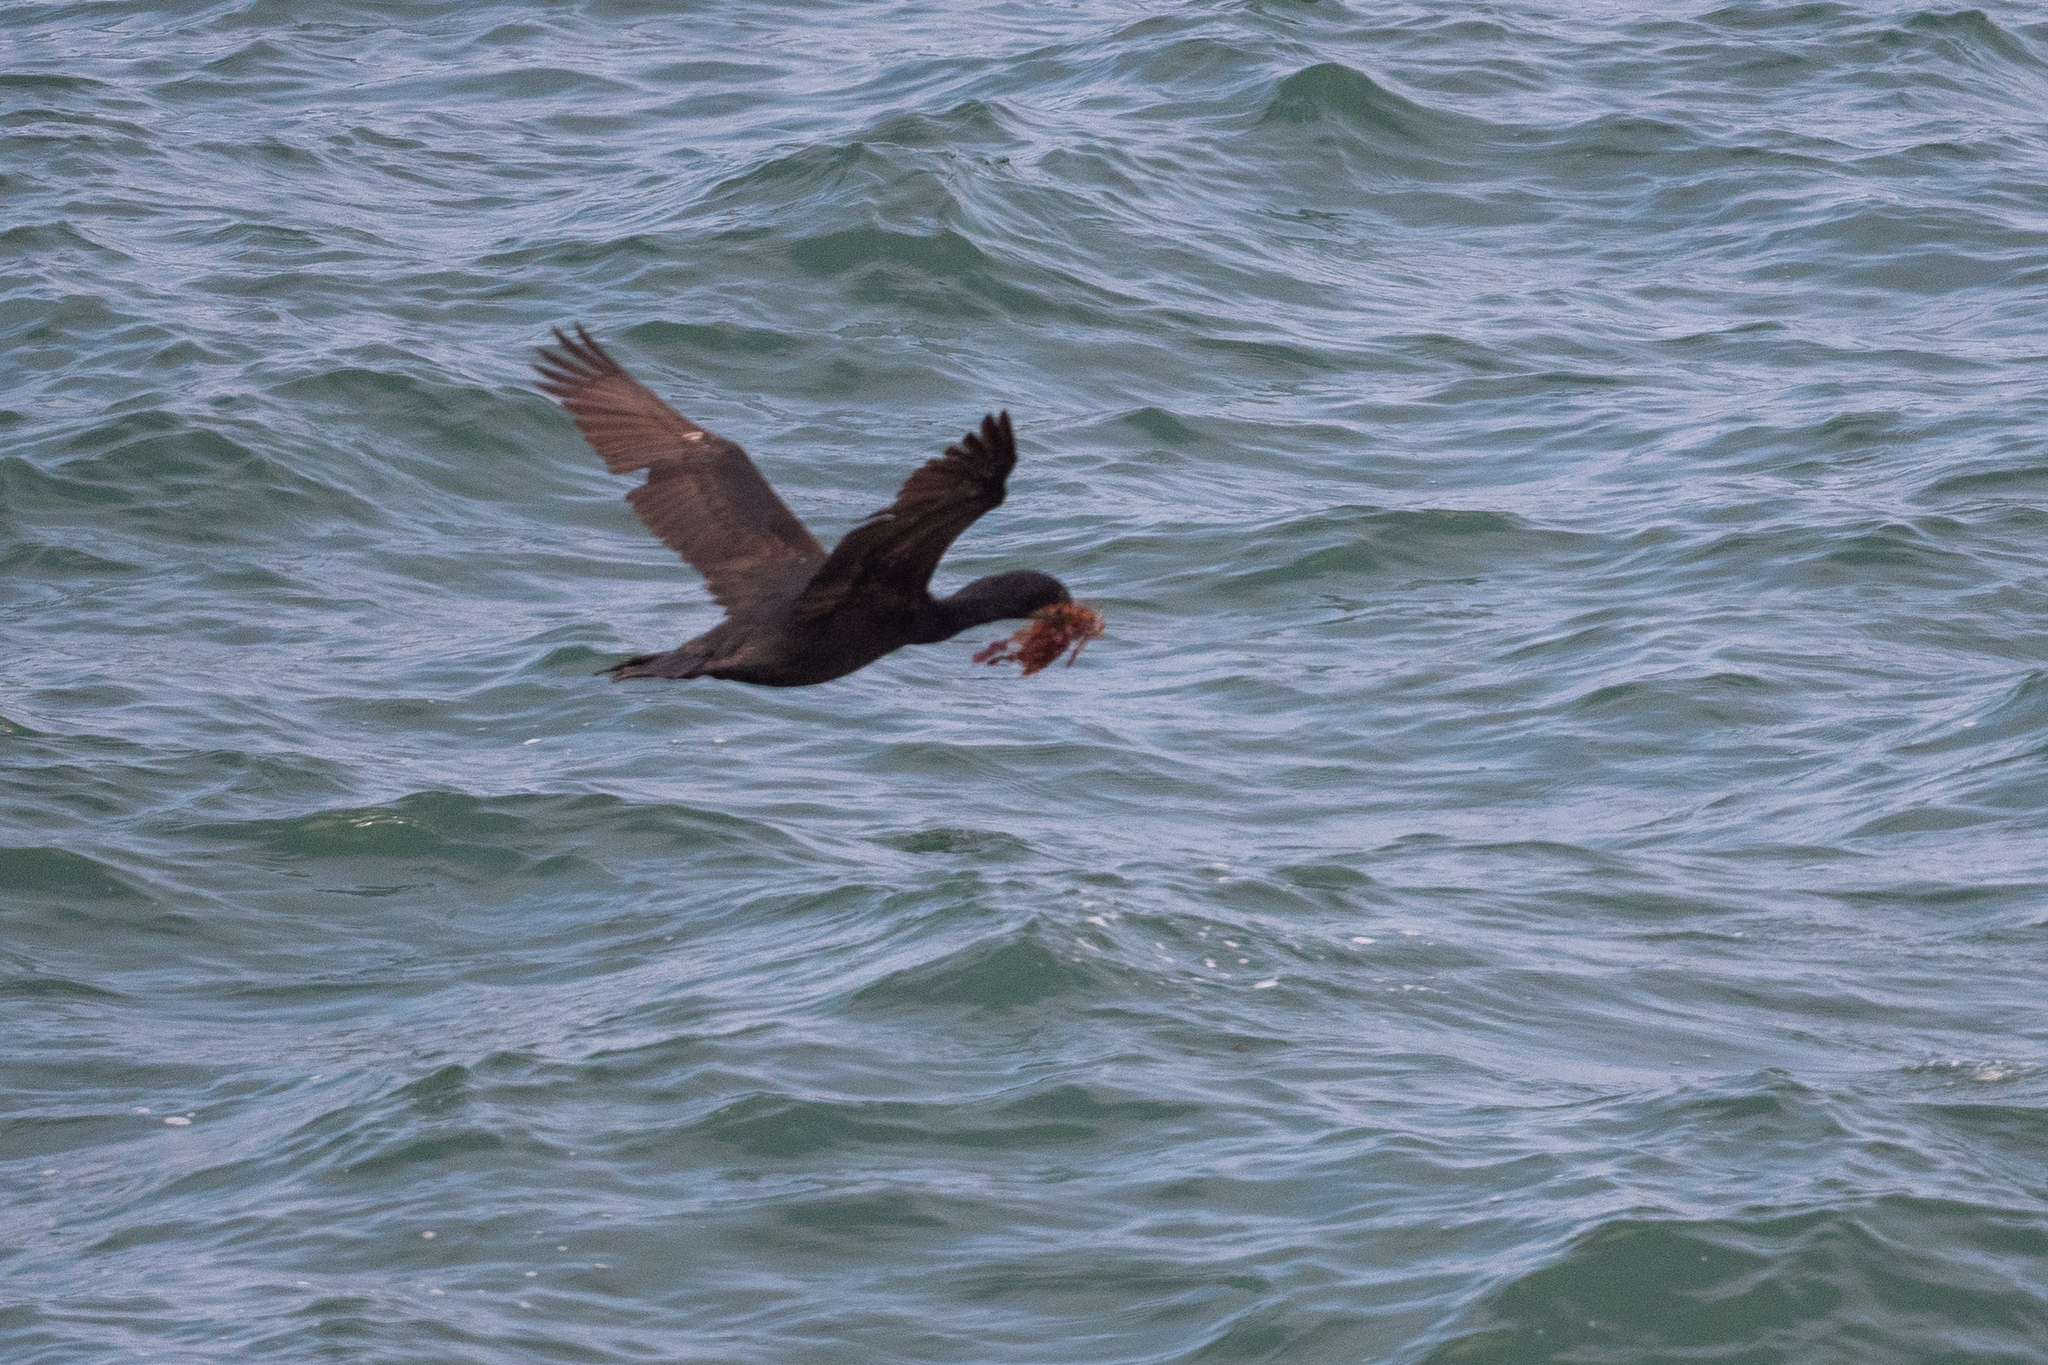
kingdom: Animalia
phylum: Chordata
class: Aves
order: Suliformes
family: Phalacrocoracidae
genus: Urile
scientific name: Urile penicillatus
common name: Brandt's cormorant
